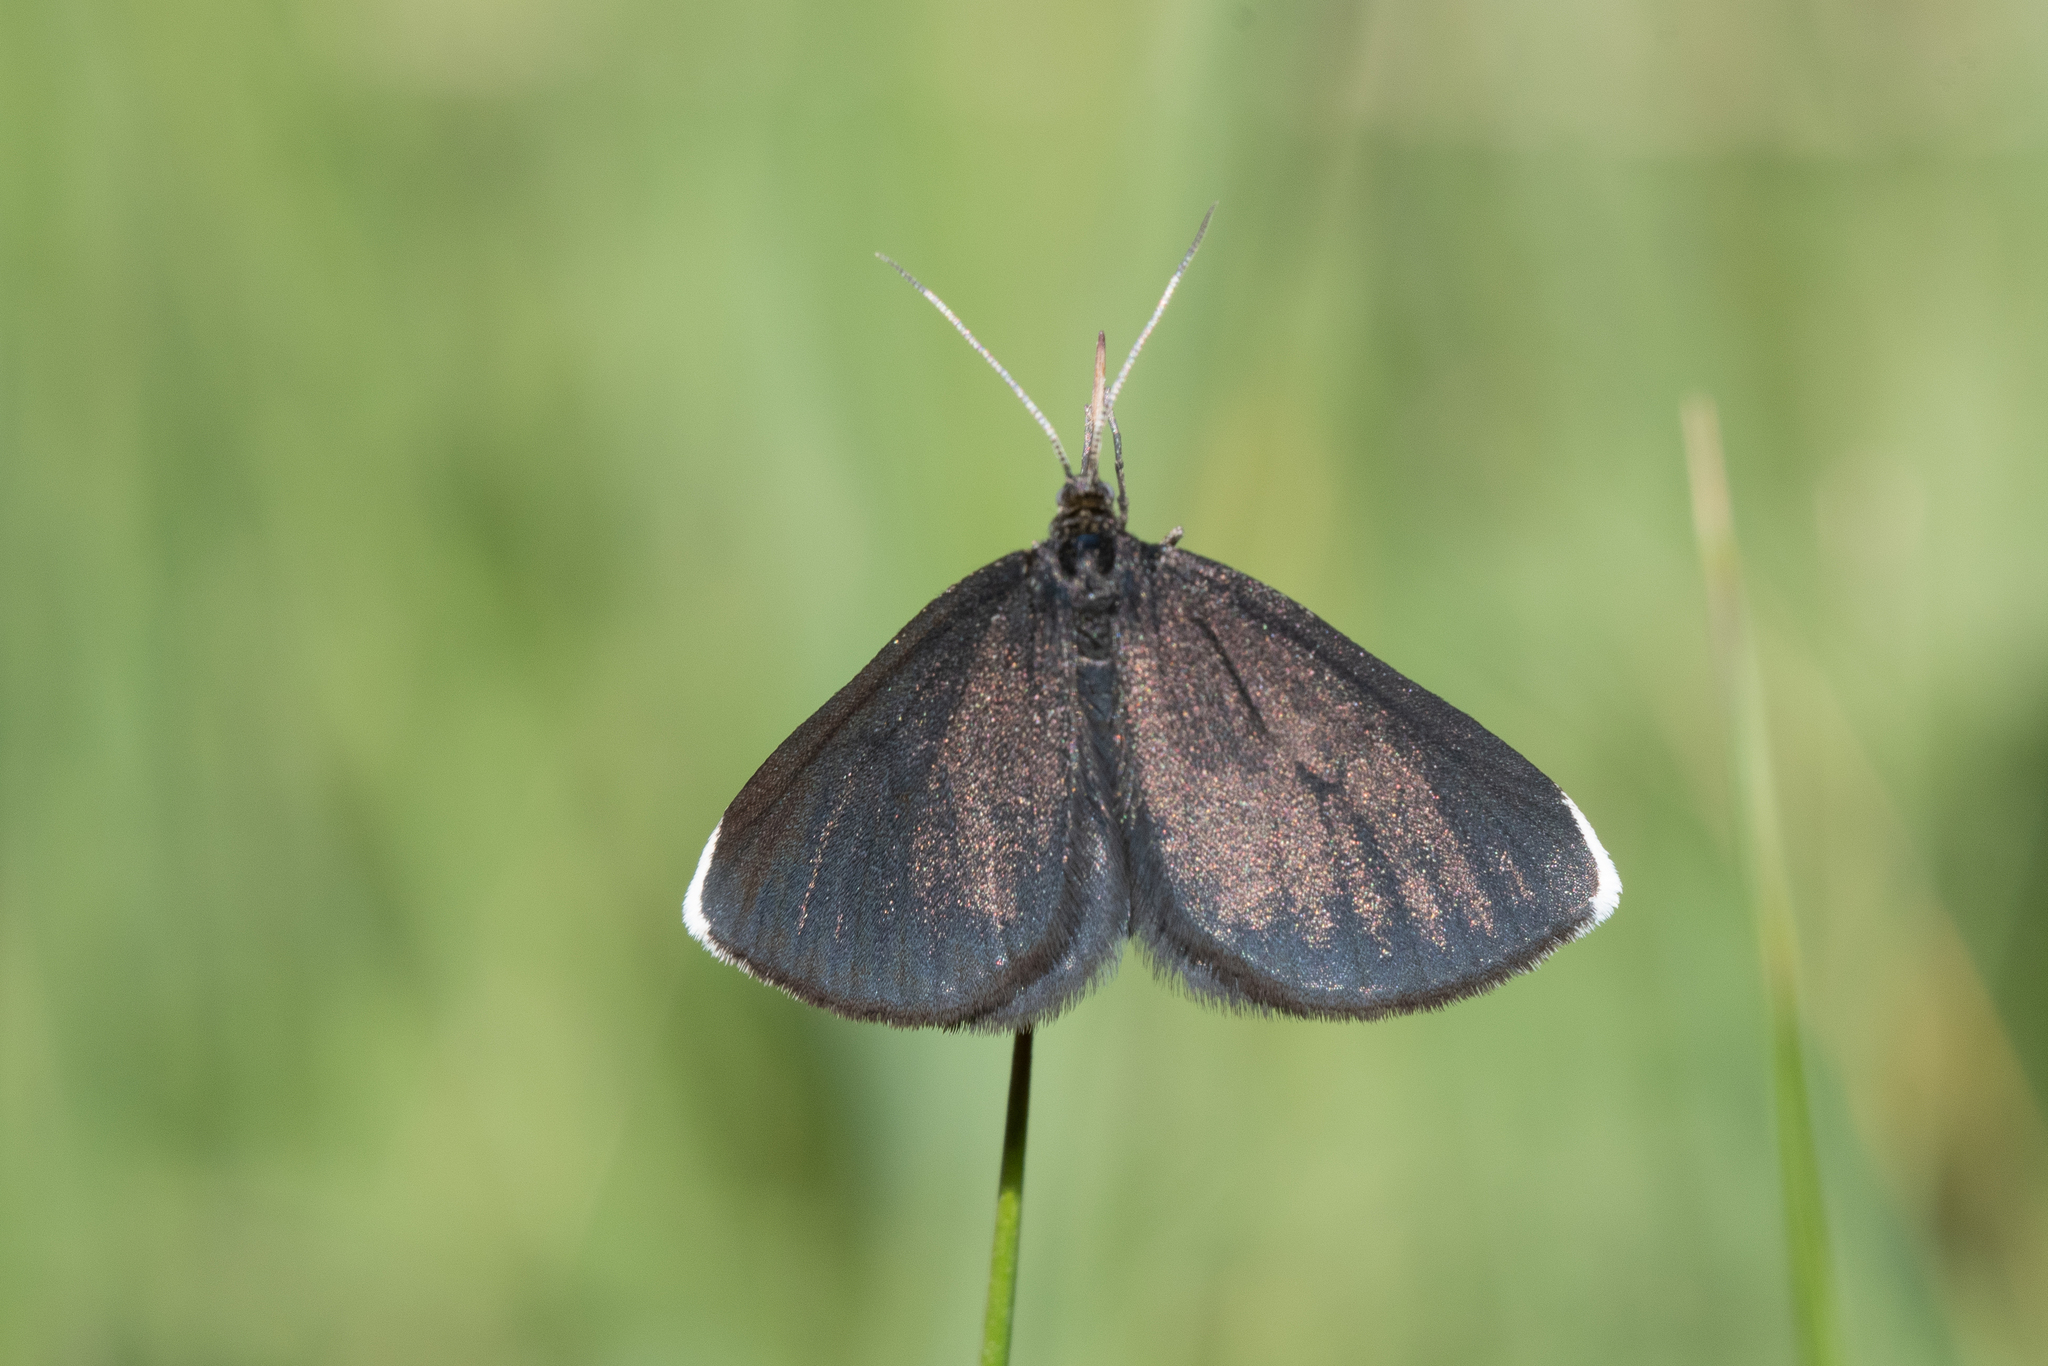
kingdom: Animalia
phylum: Arthropoda
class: Insecta
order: Lepidoptera
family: Geometridae
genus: Odezia
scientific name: Odezia atrata
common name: Chimney sweeper
